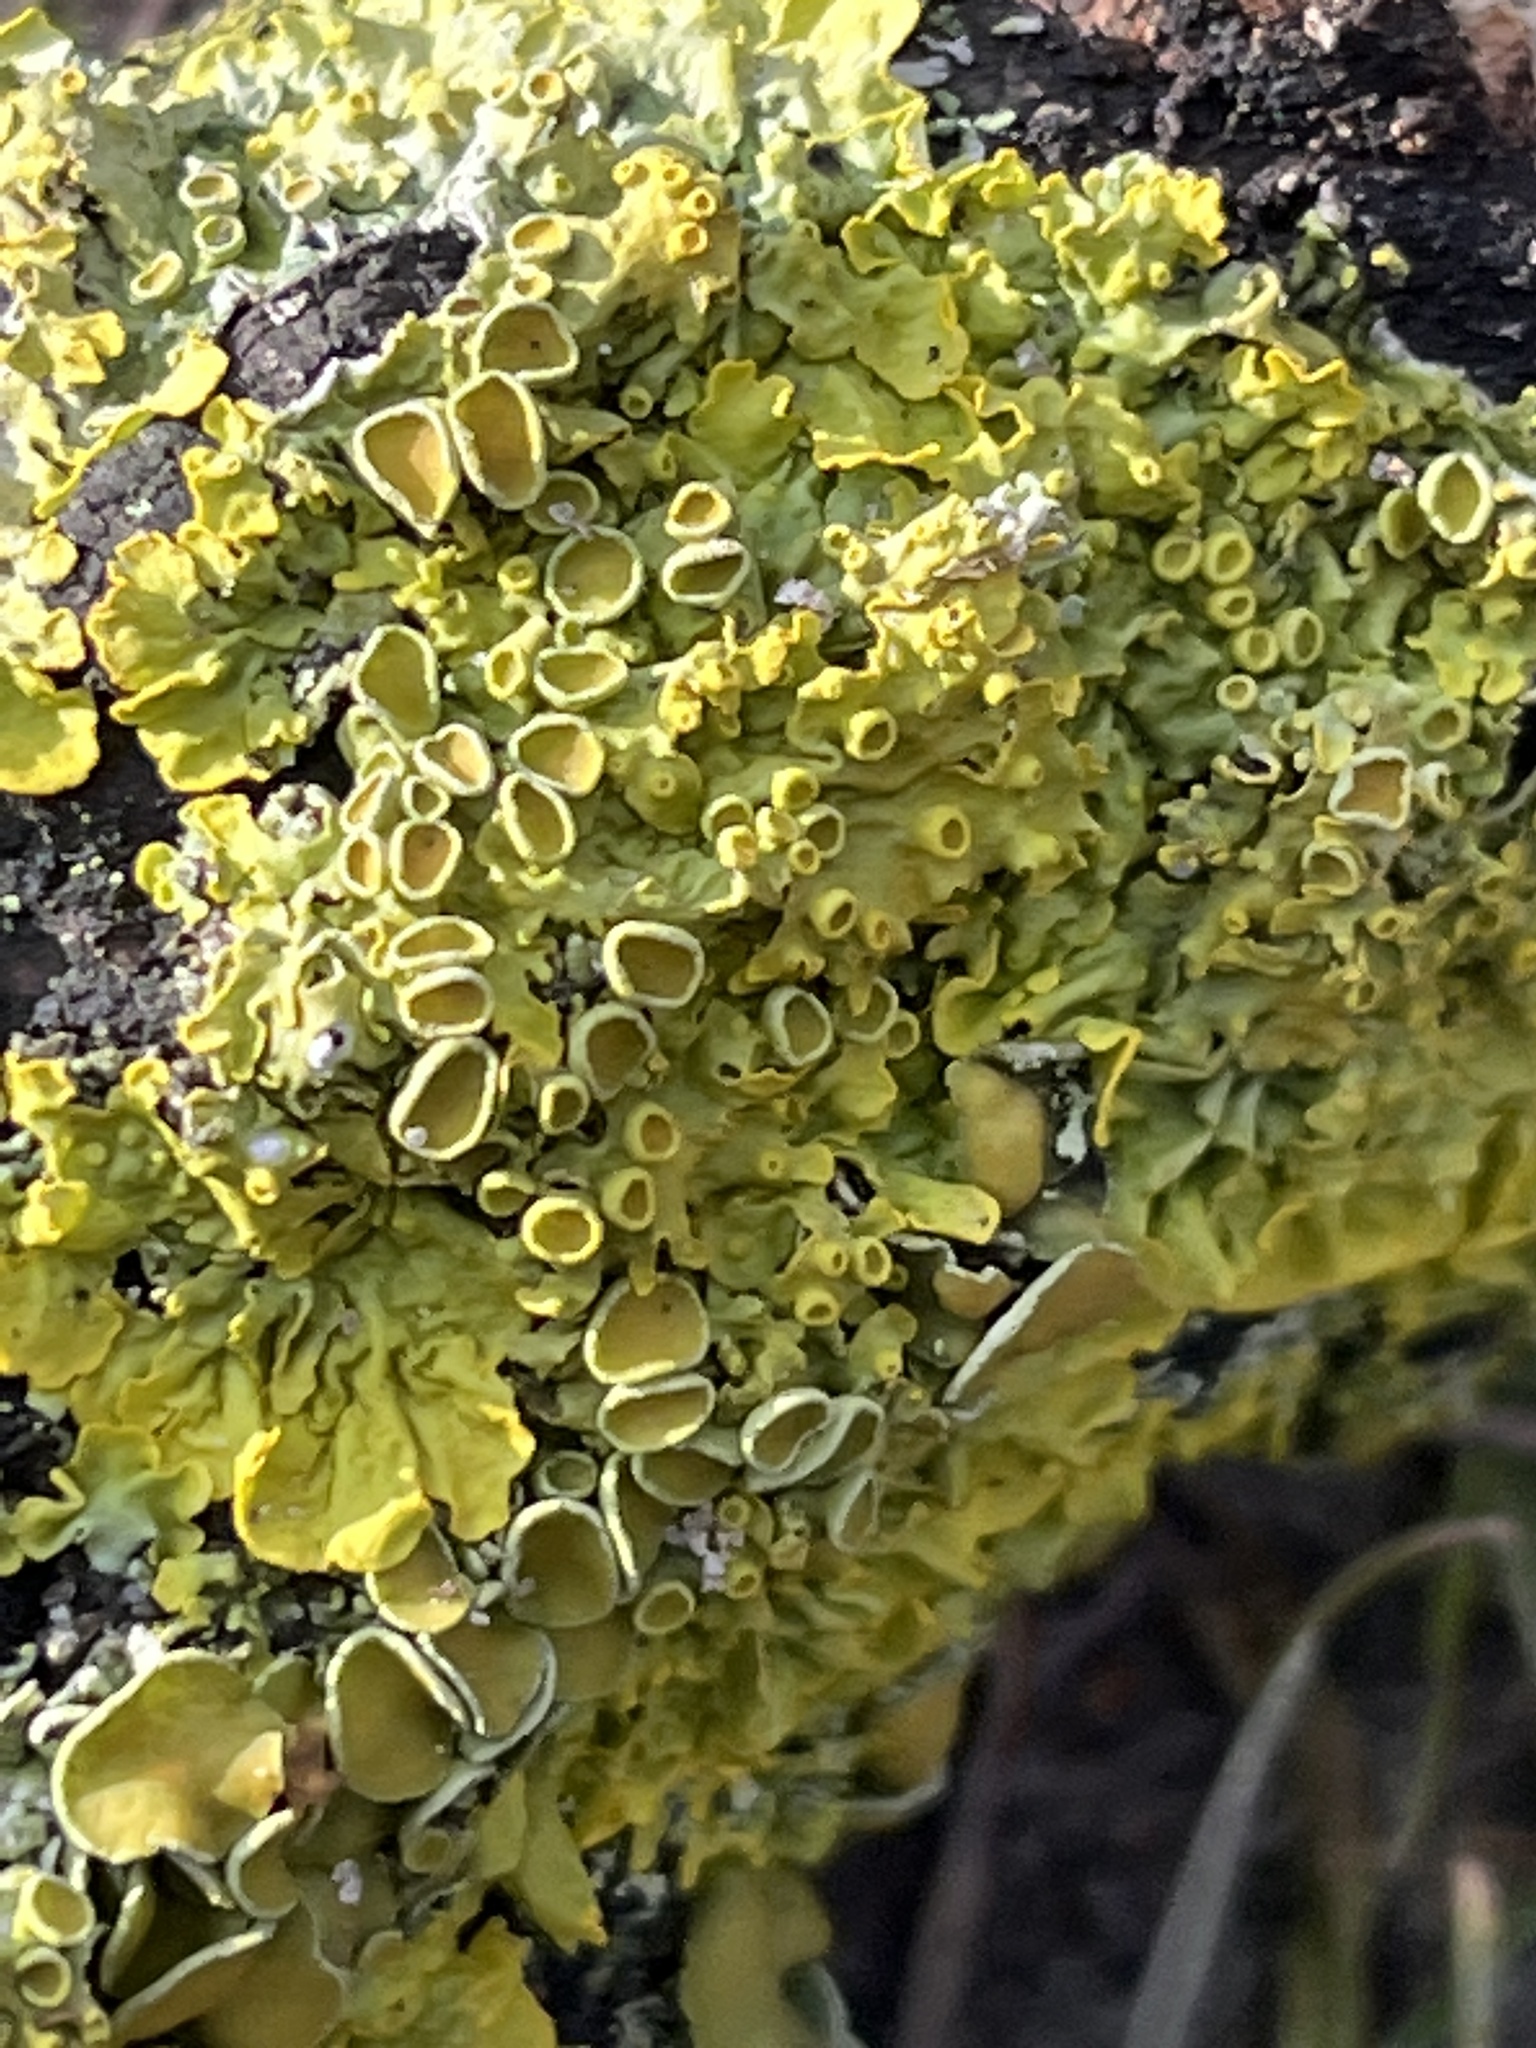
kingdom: Fungi
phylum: Ascomycota
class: Lecanoromycetes
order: Teloschistales
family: Teloschistaceae
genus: Xanthoria
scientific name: Xanthoria parietina
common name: Common orange lichen
